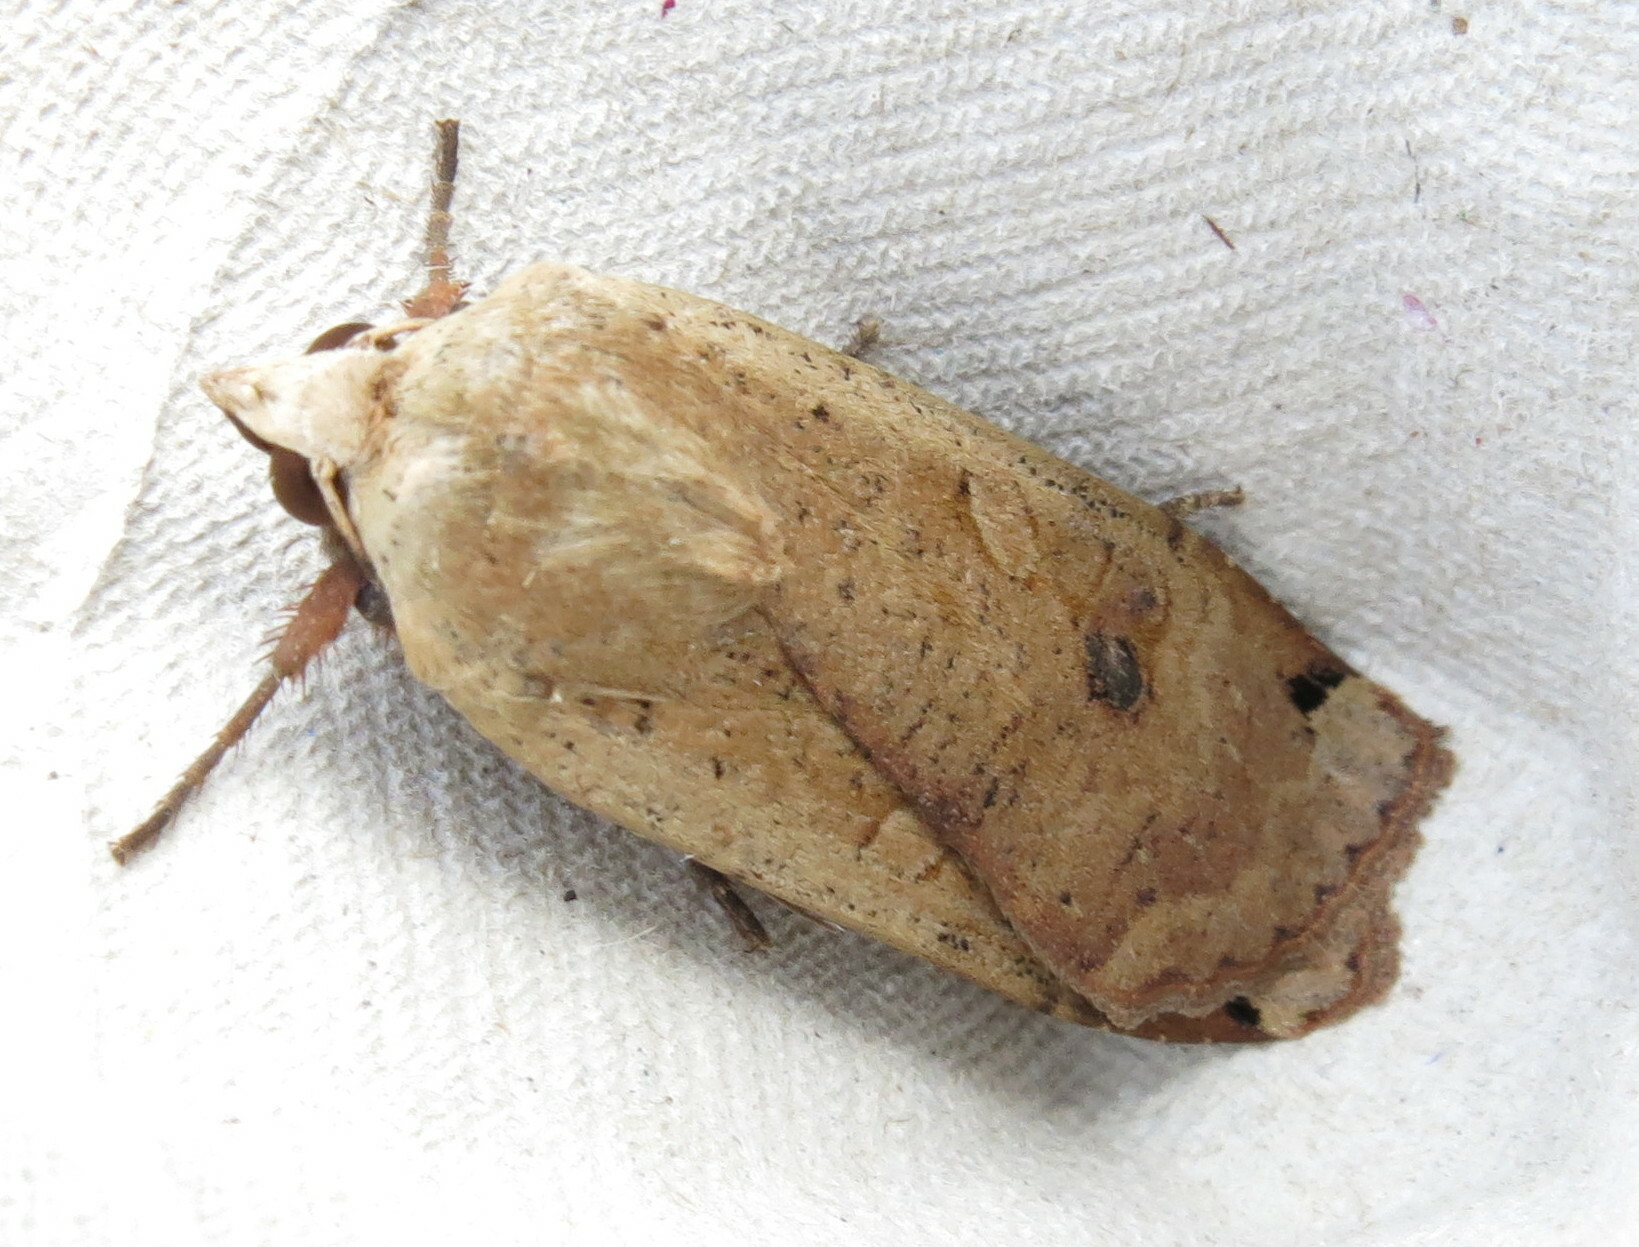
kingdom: Animalia
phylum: Arthropoda
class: Insecta
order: Lepidoptera
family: Noctuidae
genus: Noctua
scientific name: Noctua pronuba
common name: Large yellow underwing
